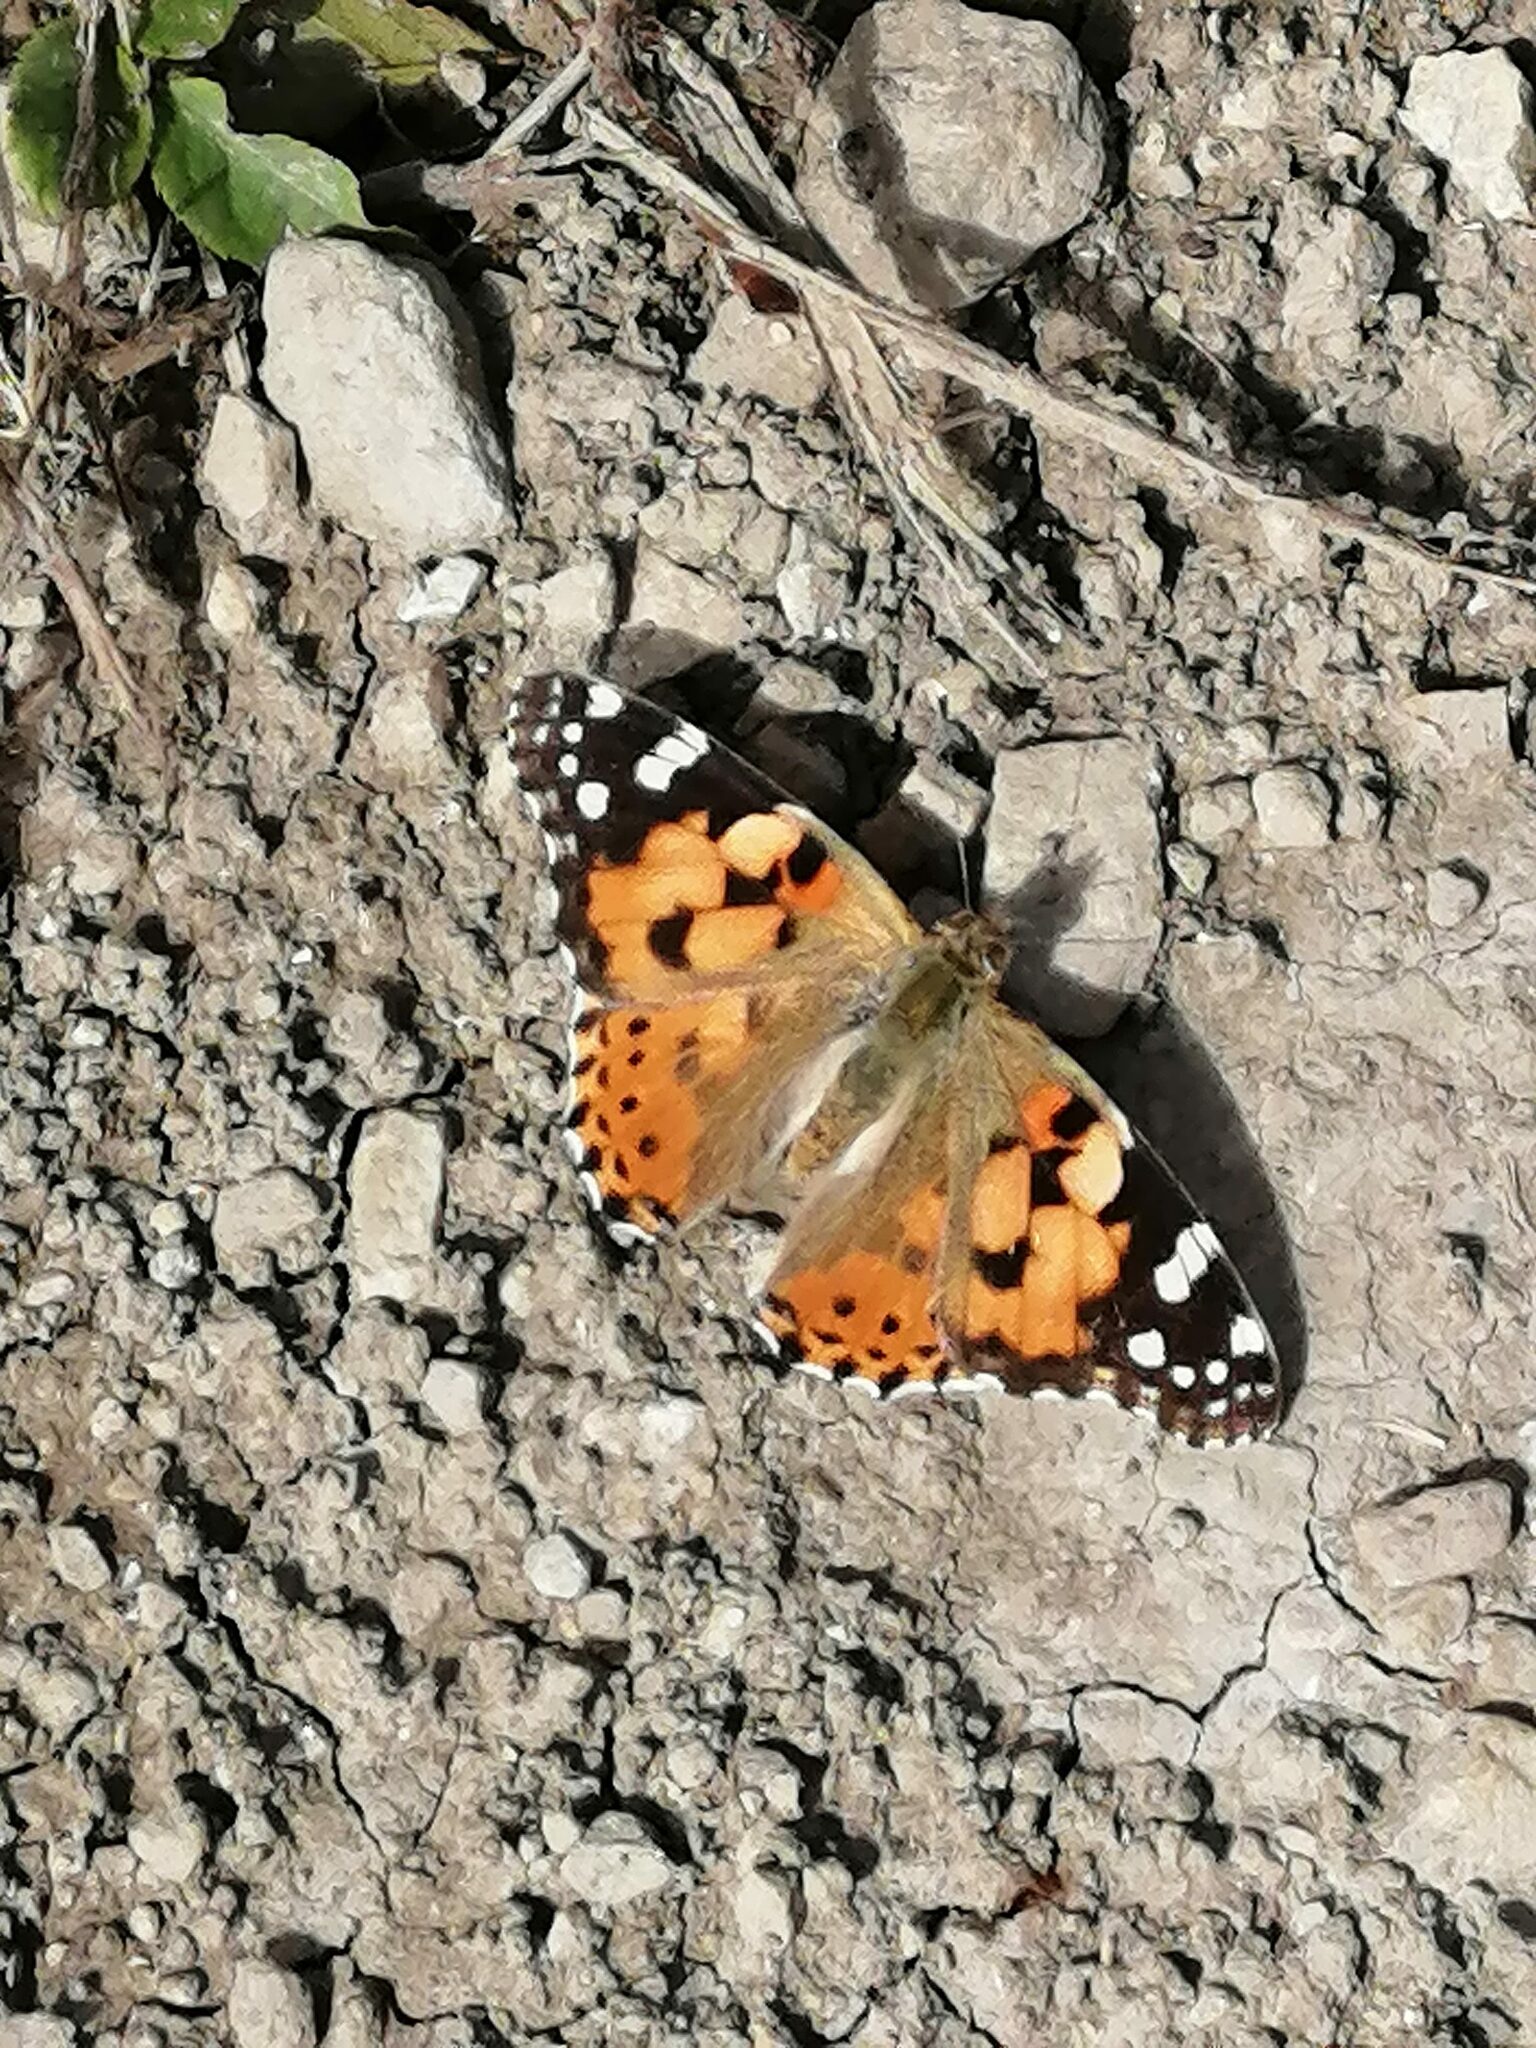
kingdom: Animalia
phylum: Arthropoda
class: Insecta
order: Lepidoptera
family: Nymphalidae
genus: Vanessa
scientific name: Vanessa cardui
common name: Painted lady
